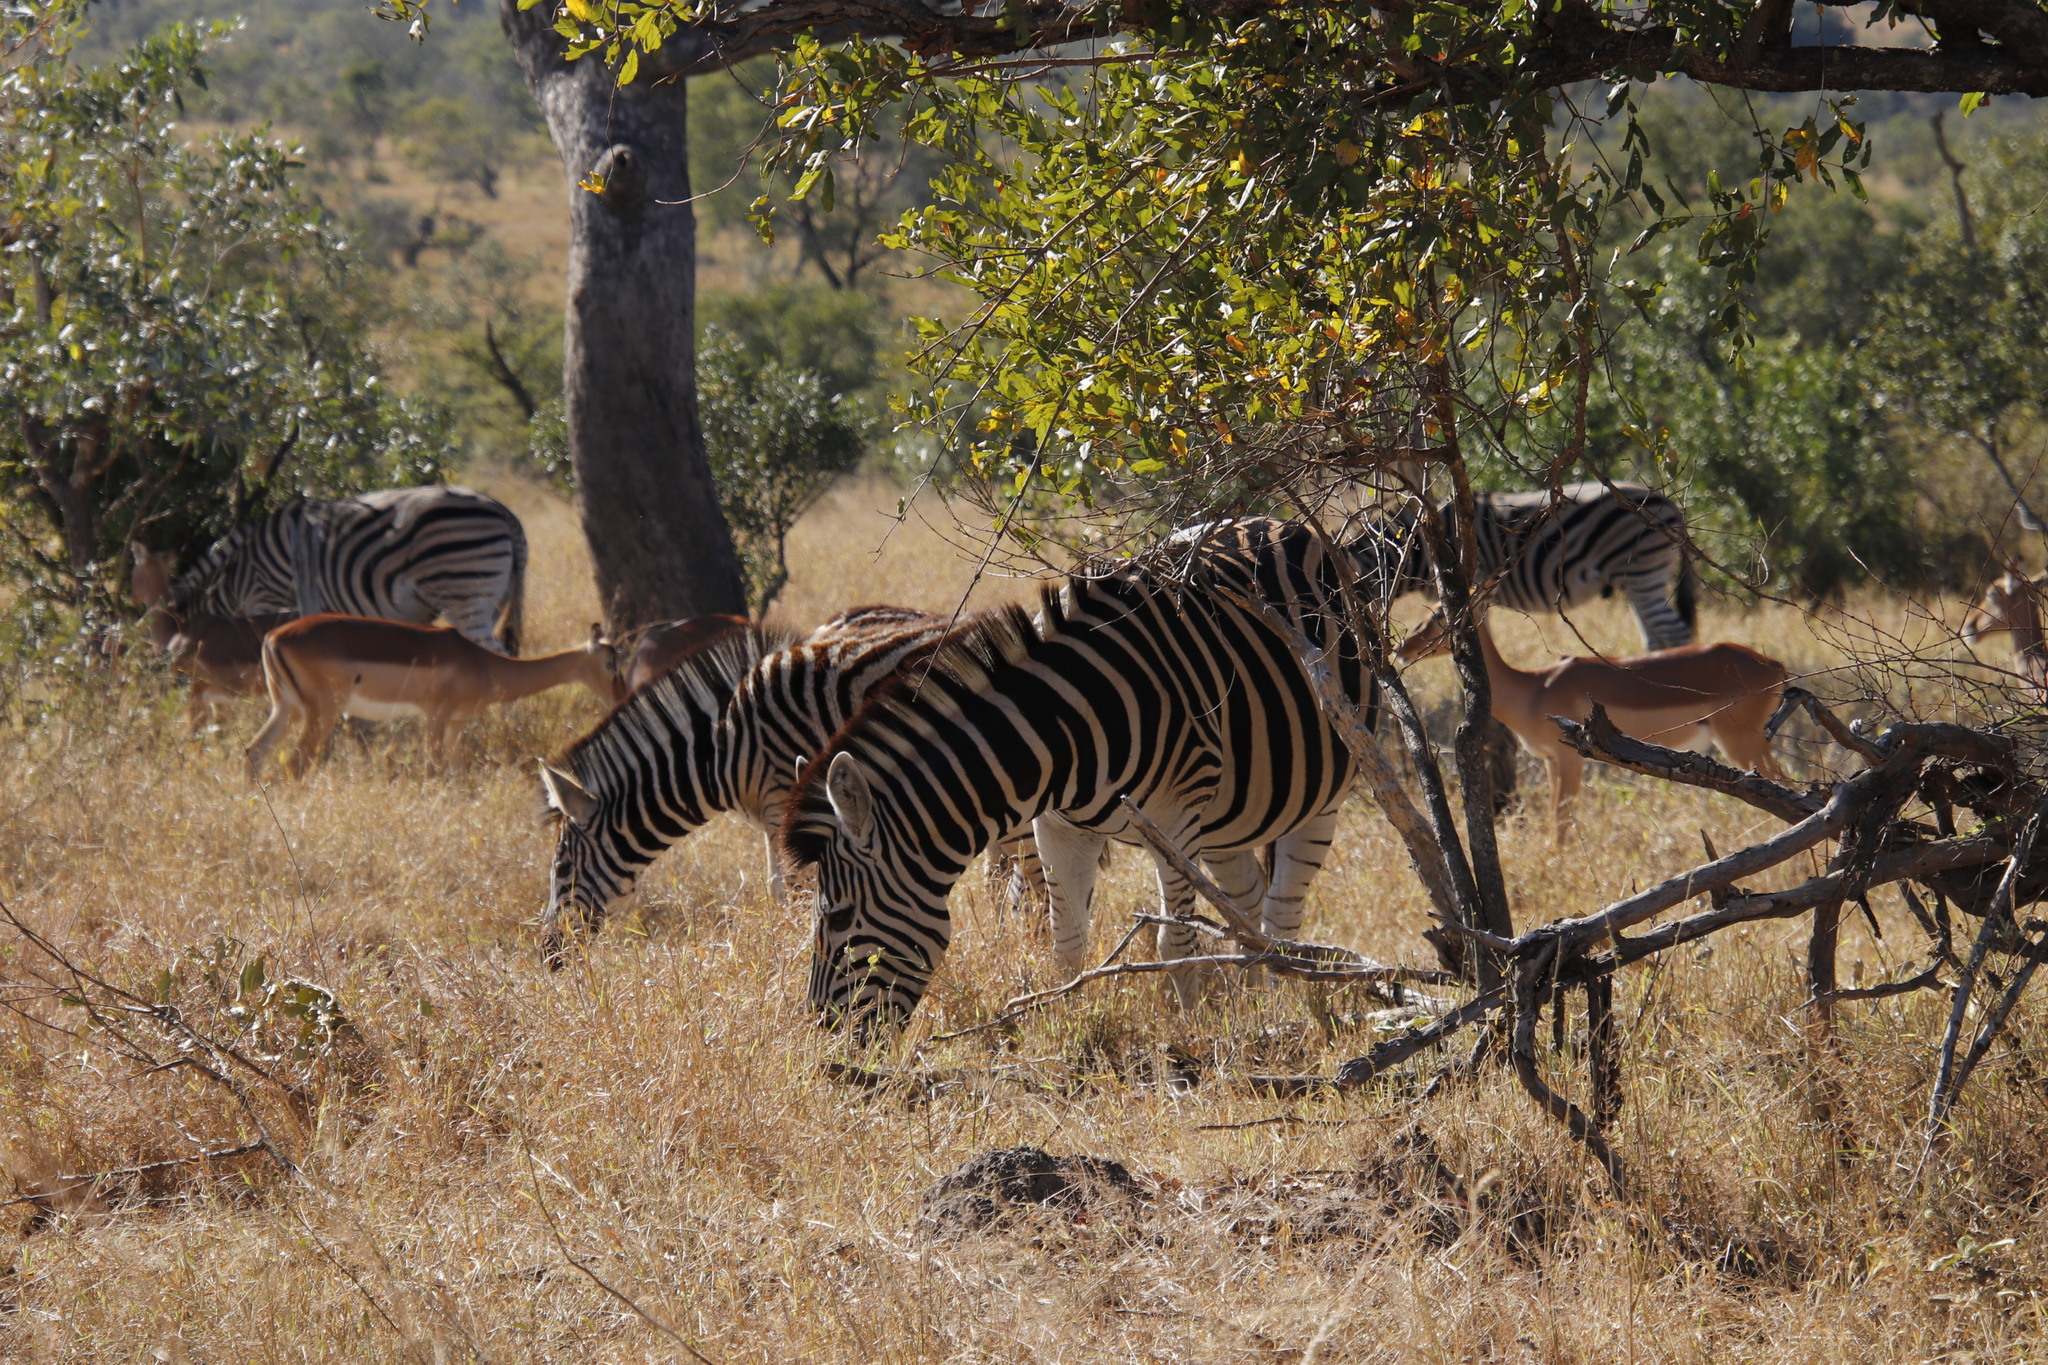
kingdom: Animalia
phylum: Chordata
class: Mammalia
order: Perissodactyla
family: Equidae
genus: Equus
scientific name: Equus quagga
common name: Plains zebra
